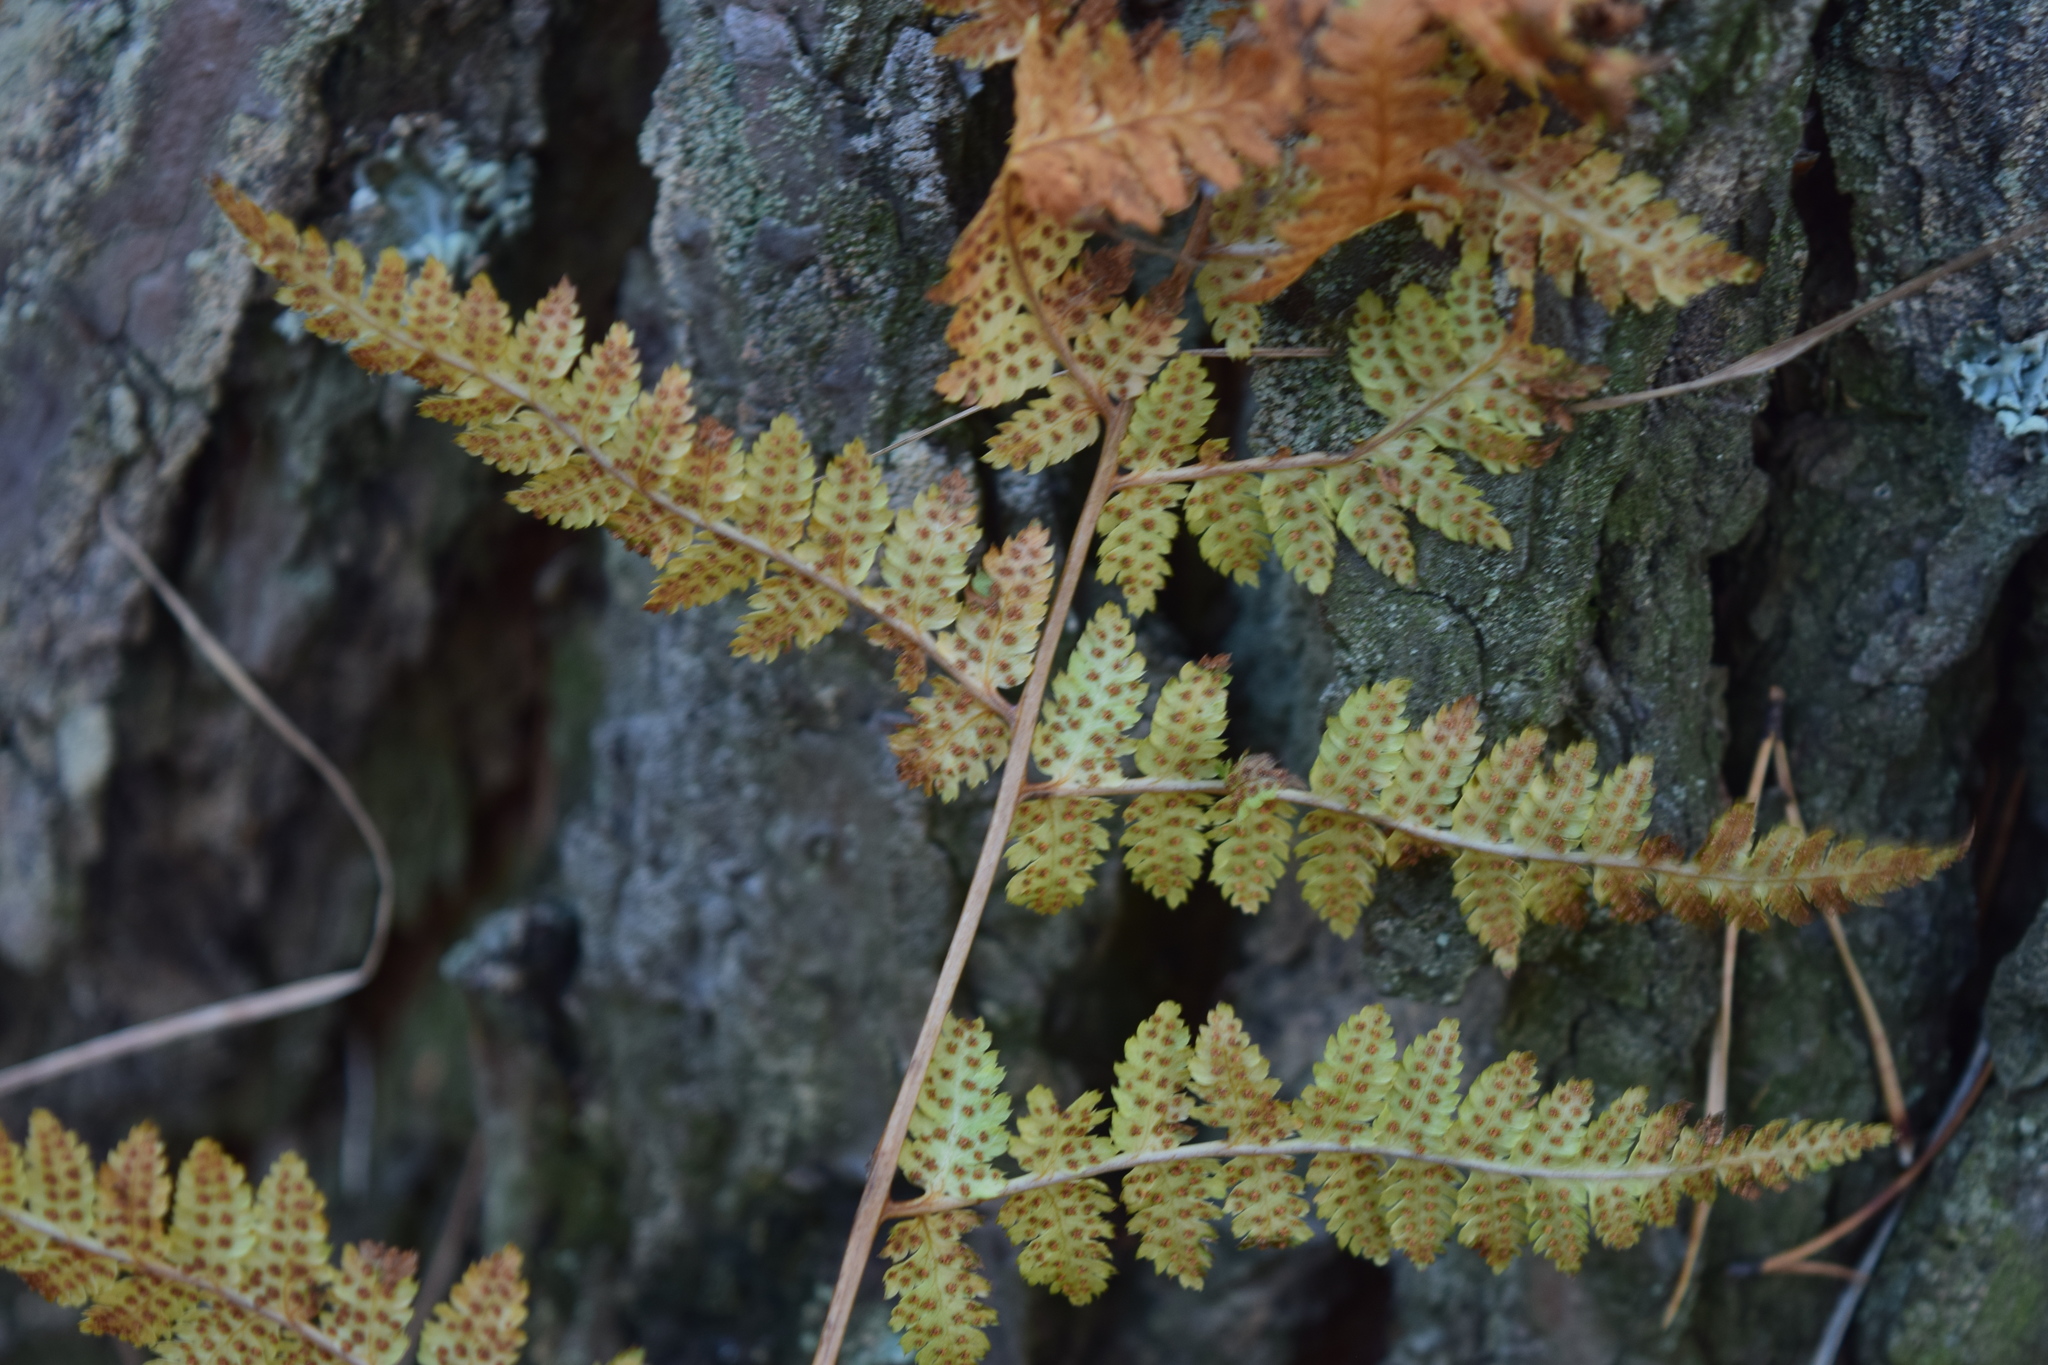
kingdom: Plantae
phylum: Tracheophyta
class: Polypodiopsida
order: Polypodiales
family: Dryopteridaceae
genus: Dryopteris
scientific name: Dryopteris carthusiana
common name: Narrow buckler-fern
